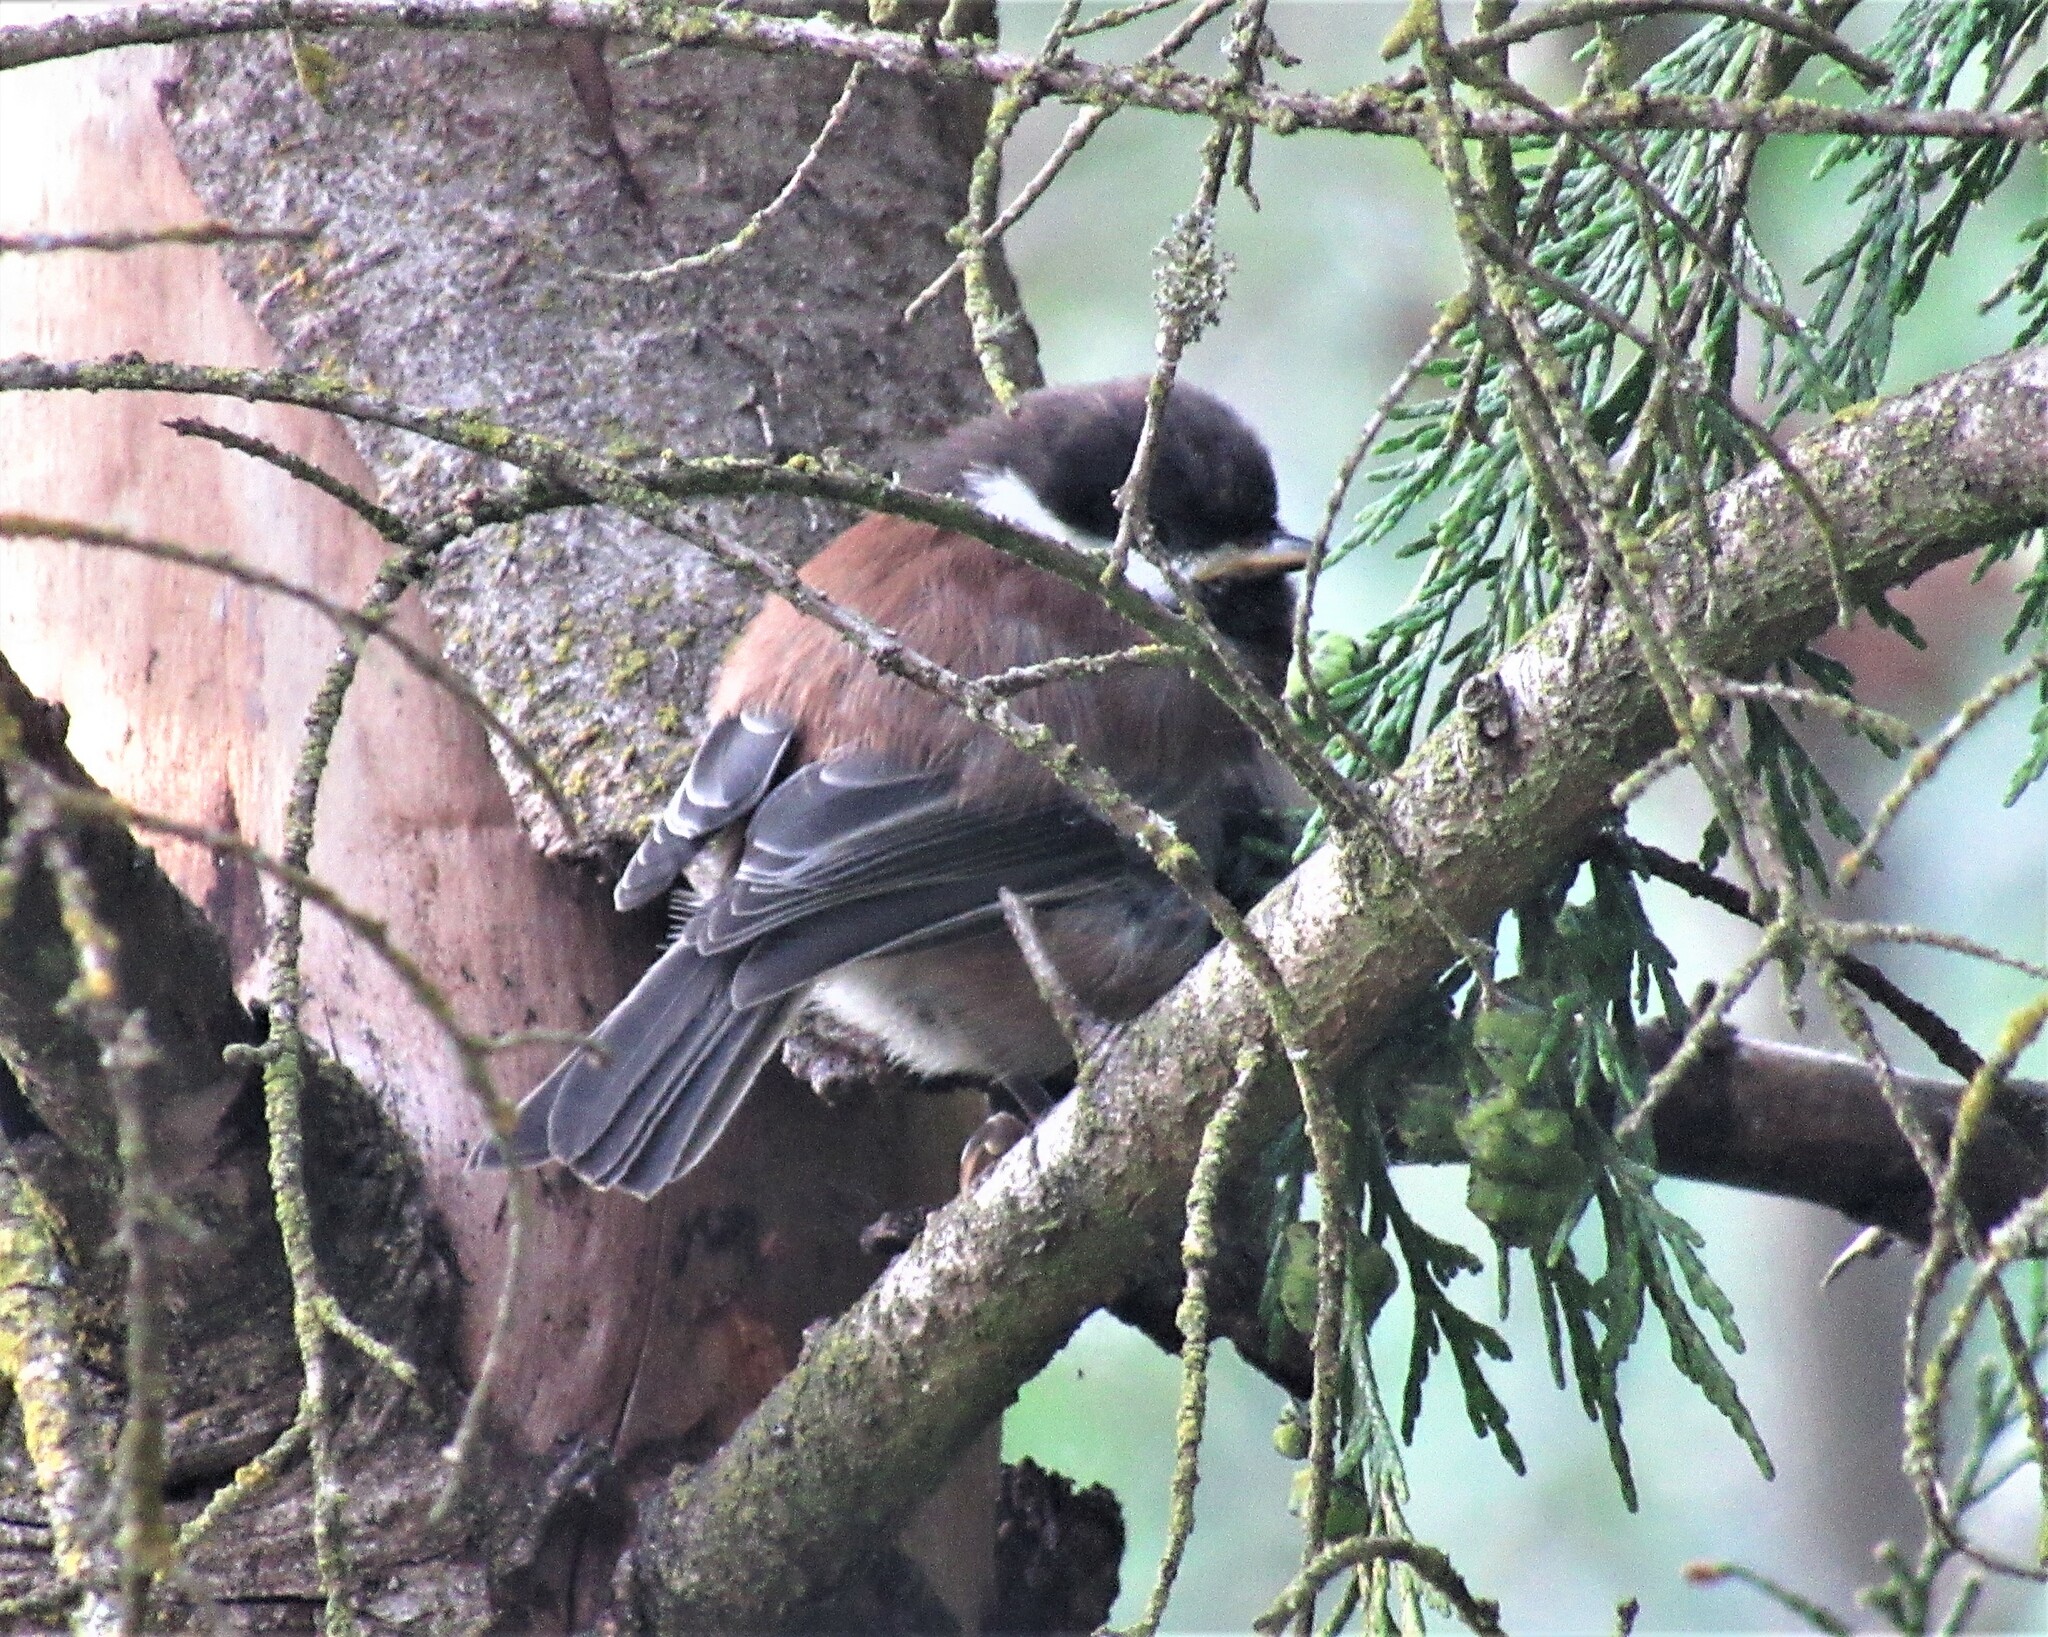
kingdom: Animalia
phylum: Chordata
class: Aves
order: Passeriformes
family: Paridae
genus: Poecile
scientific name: Poecile rufescens
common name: Chestnut-backed chickadee
